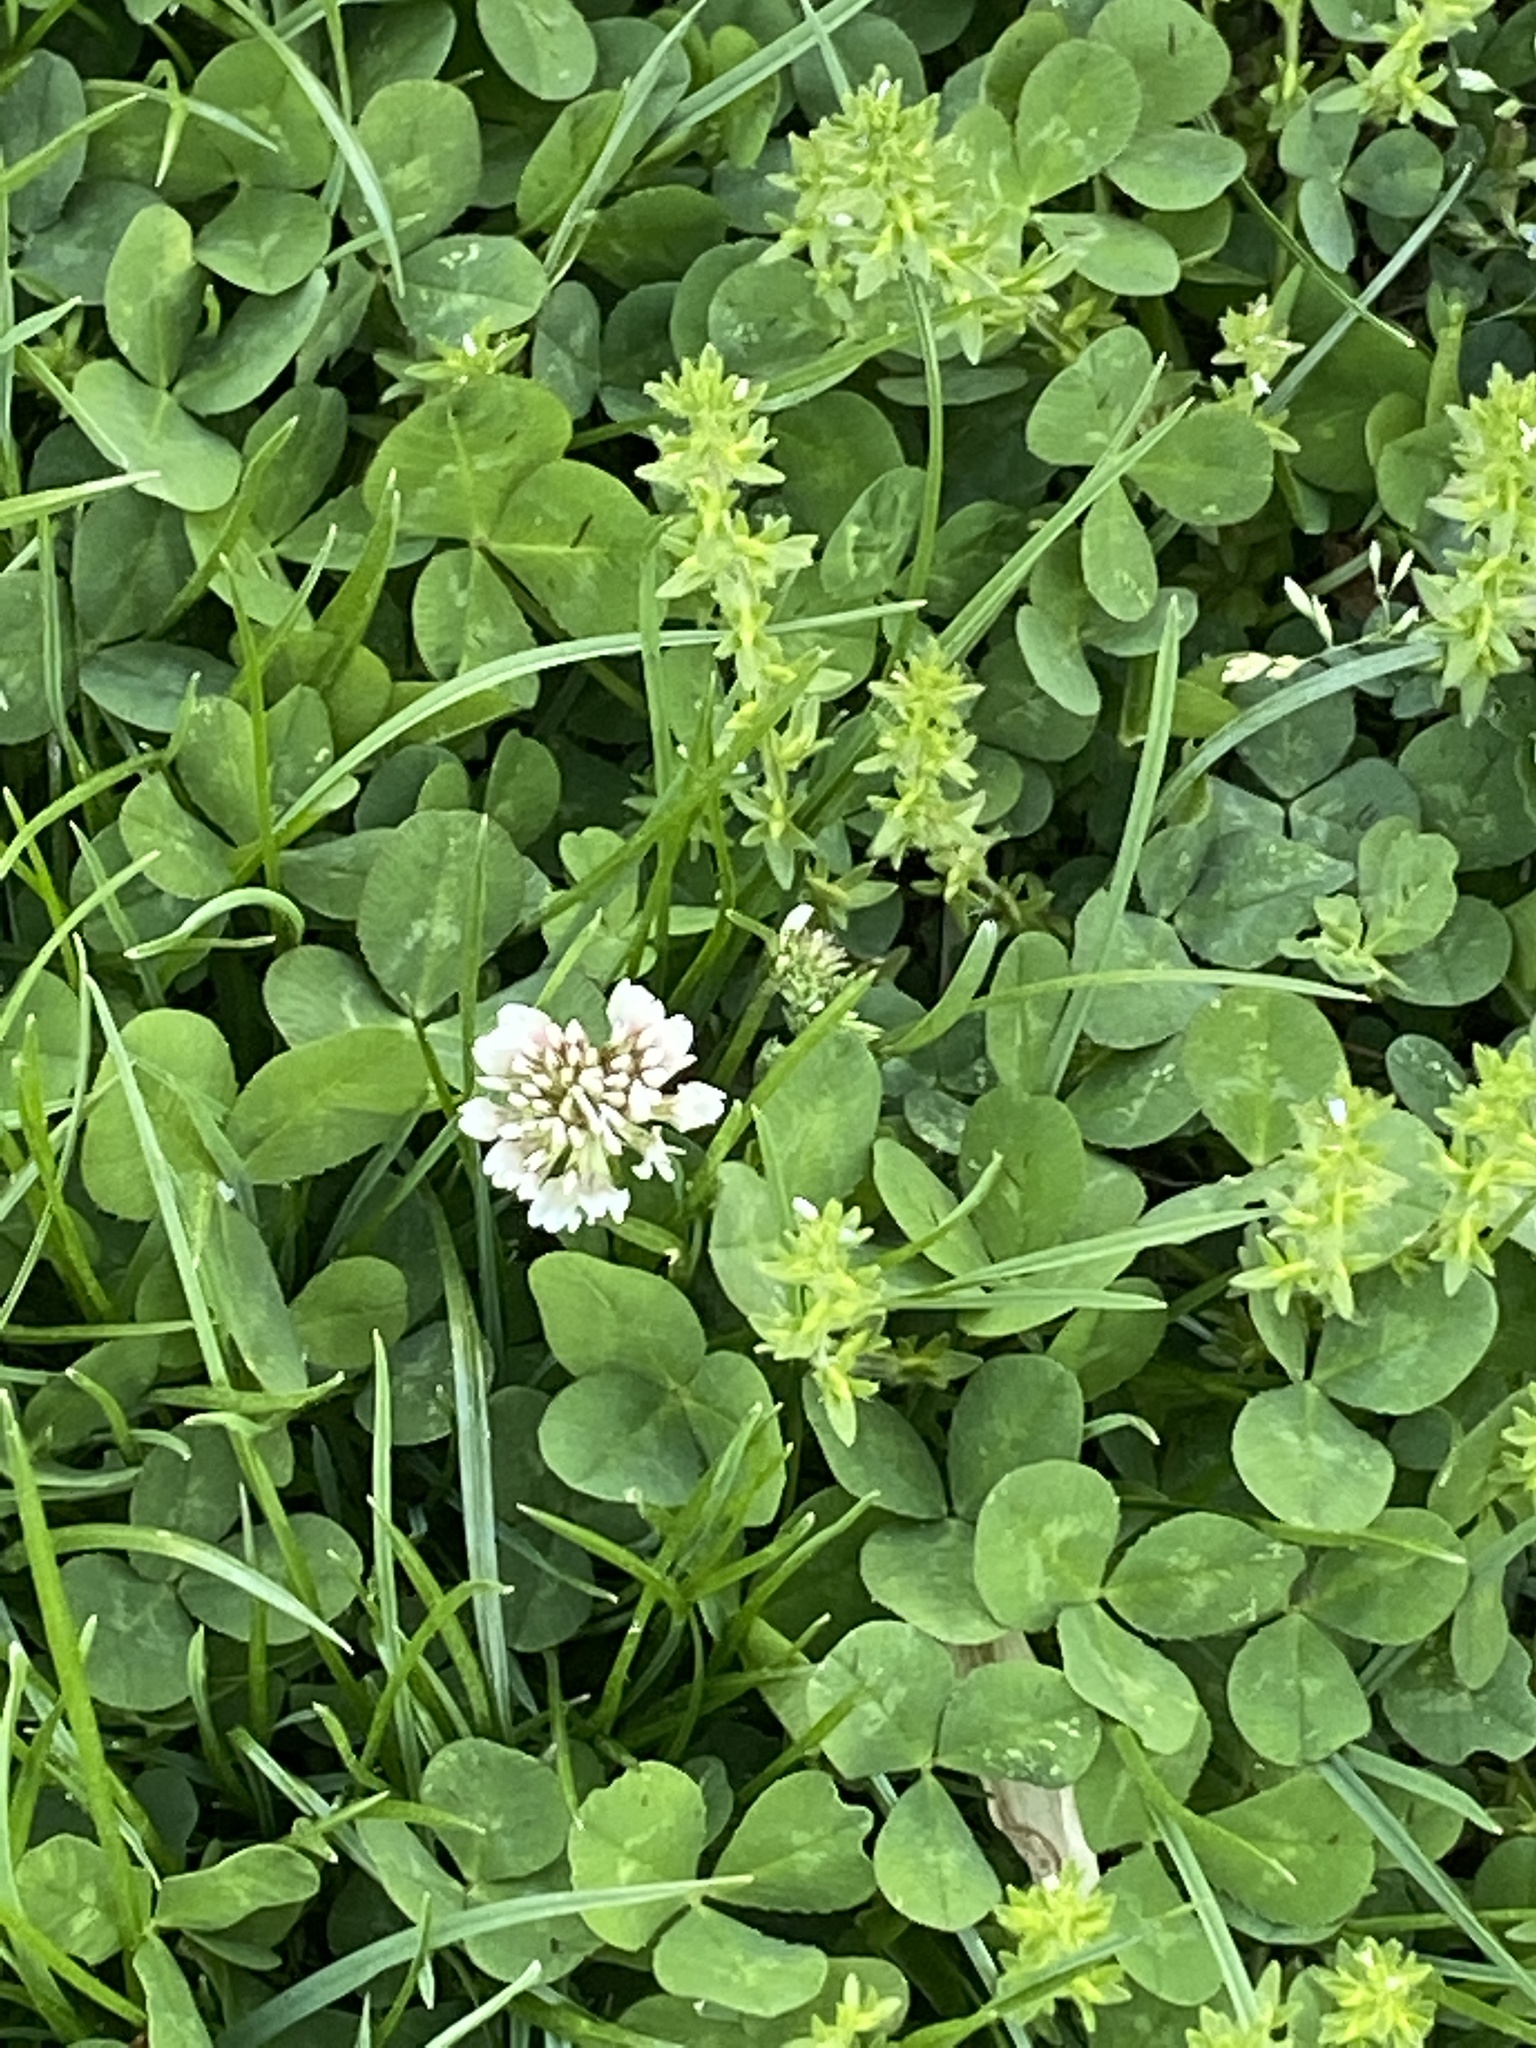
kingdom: Plantae
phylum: Tracheophyta
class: Magnoliopsida
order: Fabales
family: Fabaceae
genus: Trifolium
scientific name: Trifolium repens
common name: White clover
